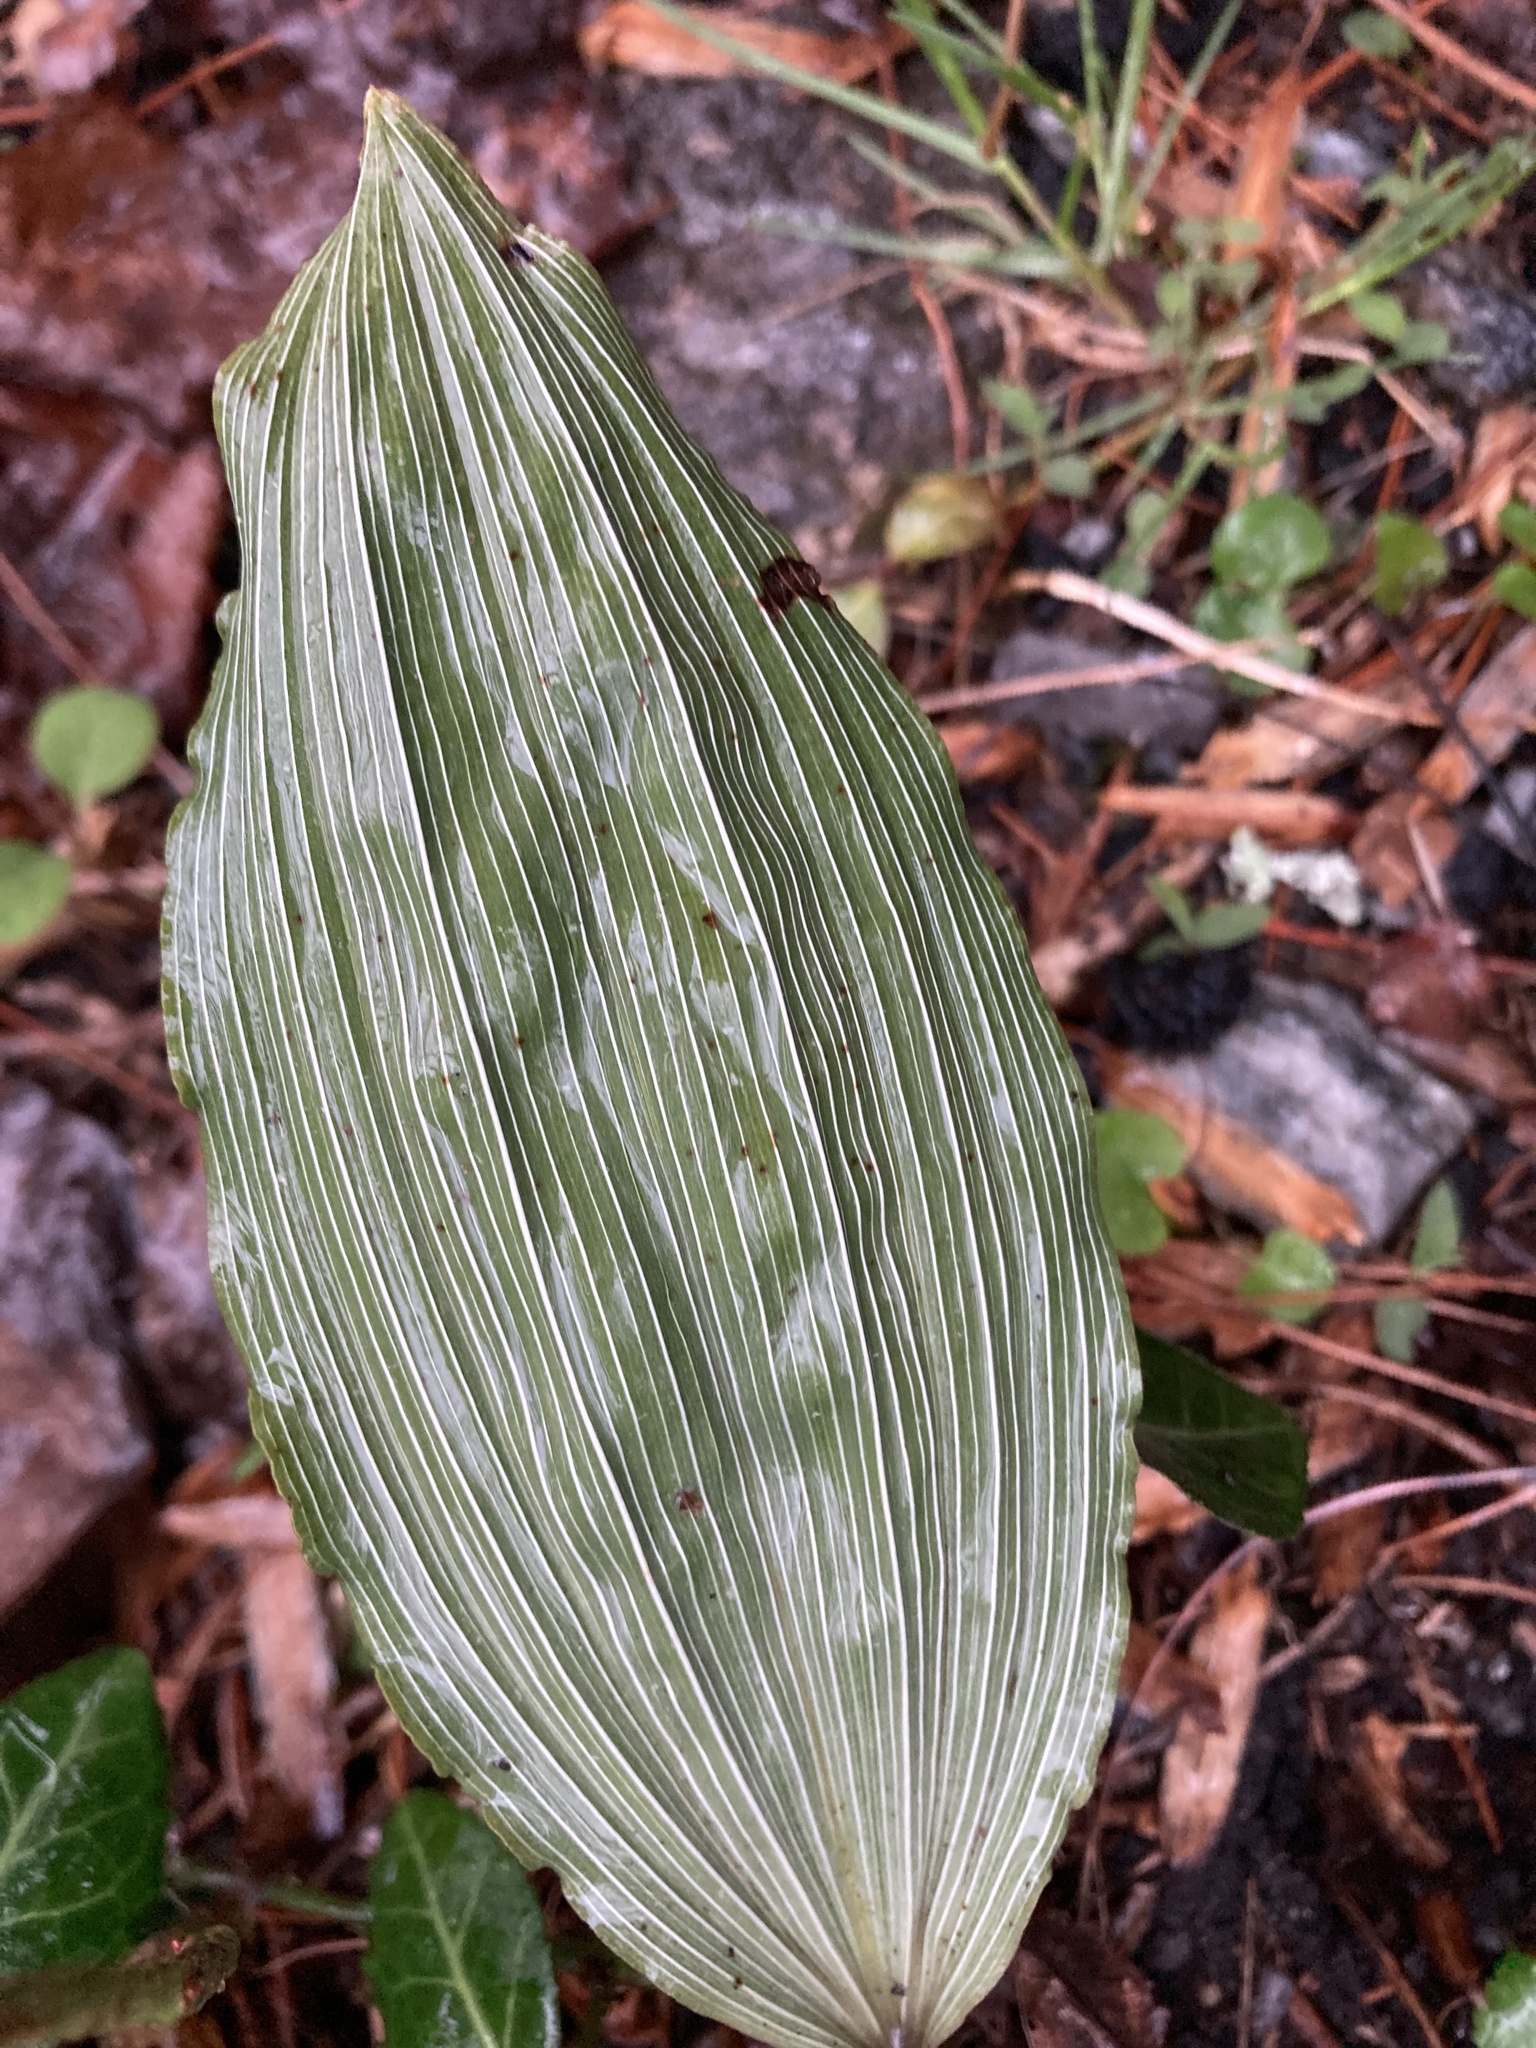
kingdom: Plantae
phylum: Tracheophyta
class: Liliopsida
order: Asparagales
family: Orchidaceae
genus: Aplectrum
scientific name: Aplectrum hyemale
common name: Adam-and-eve
